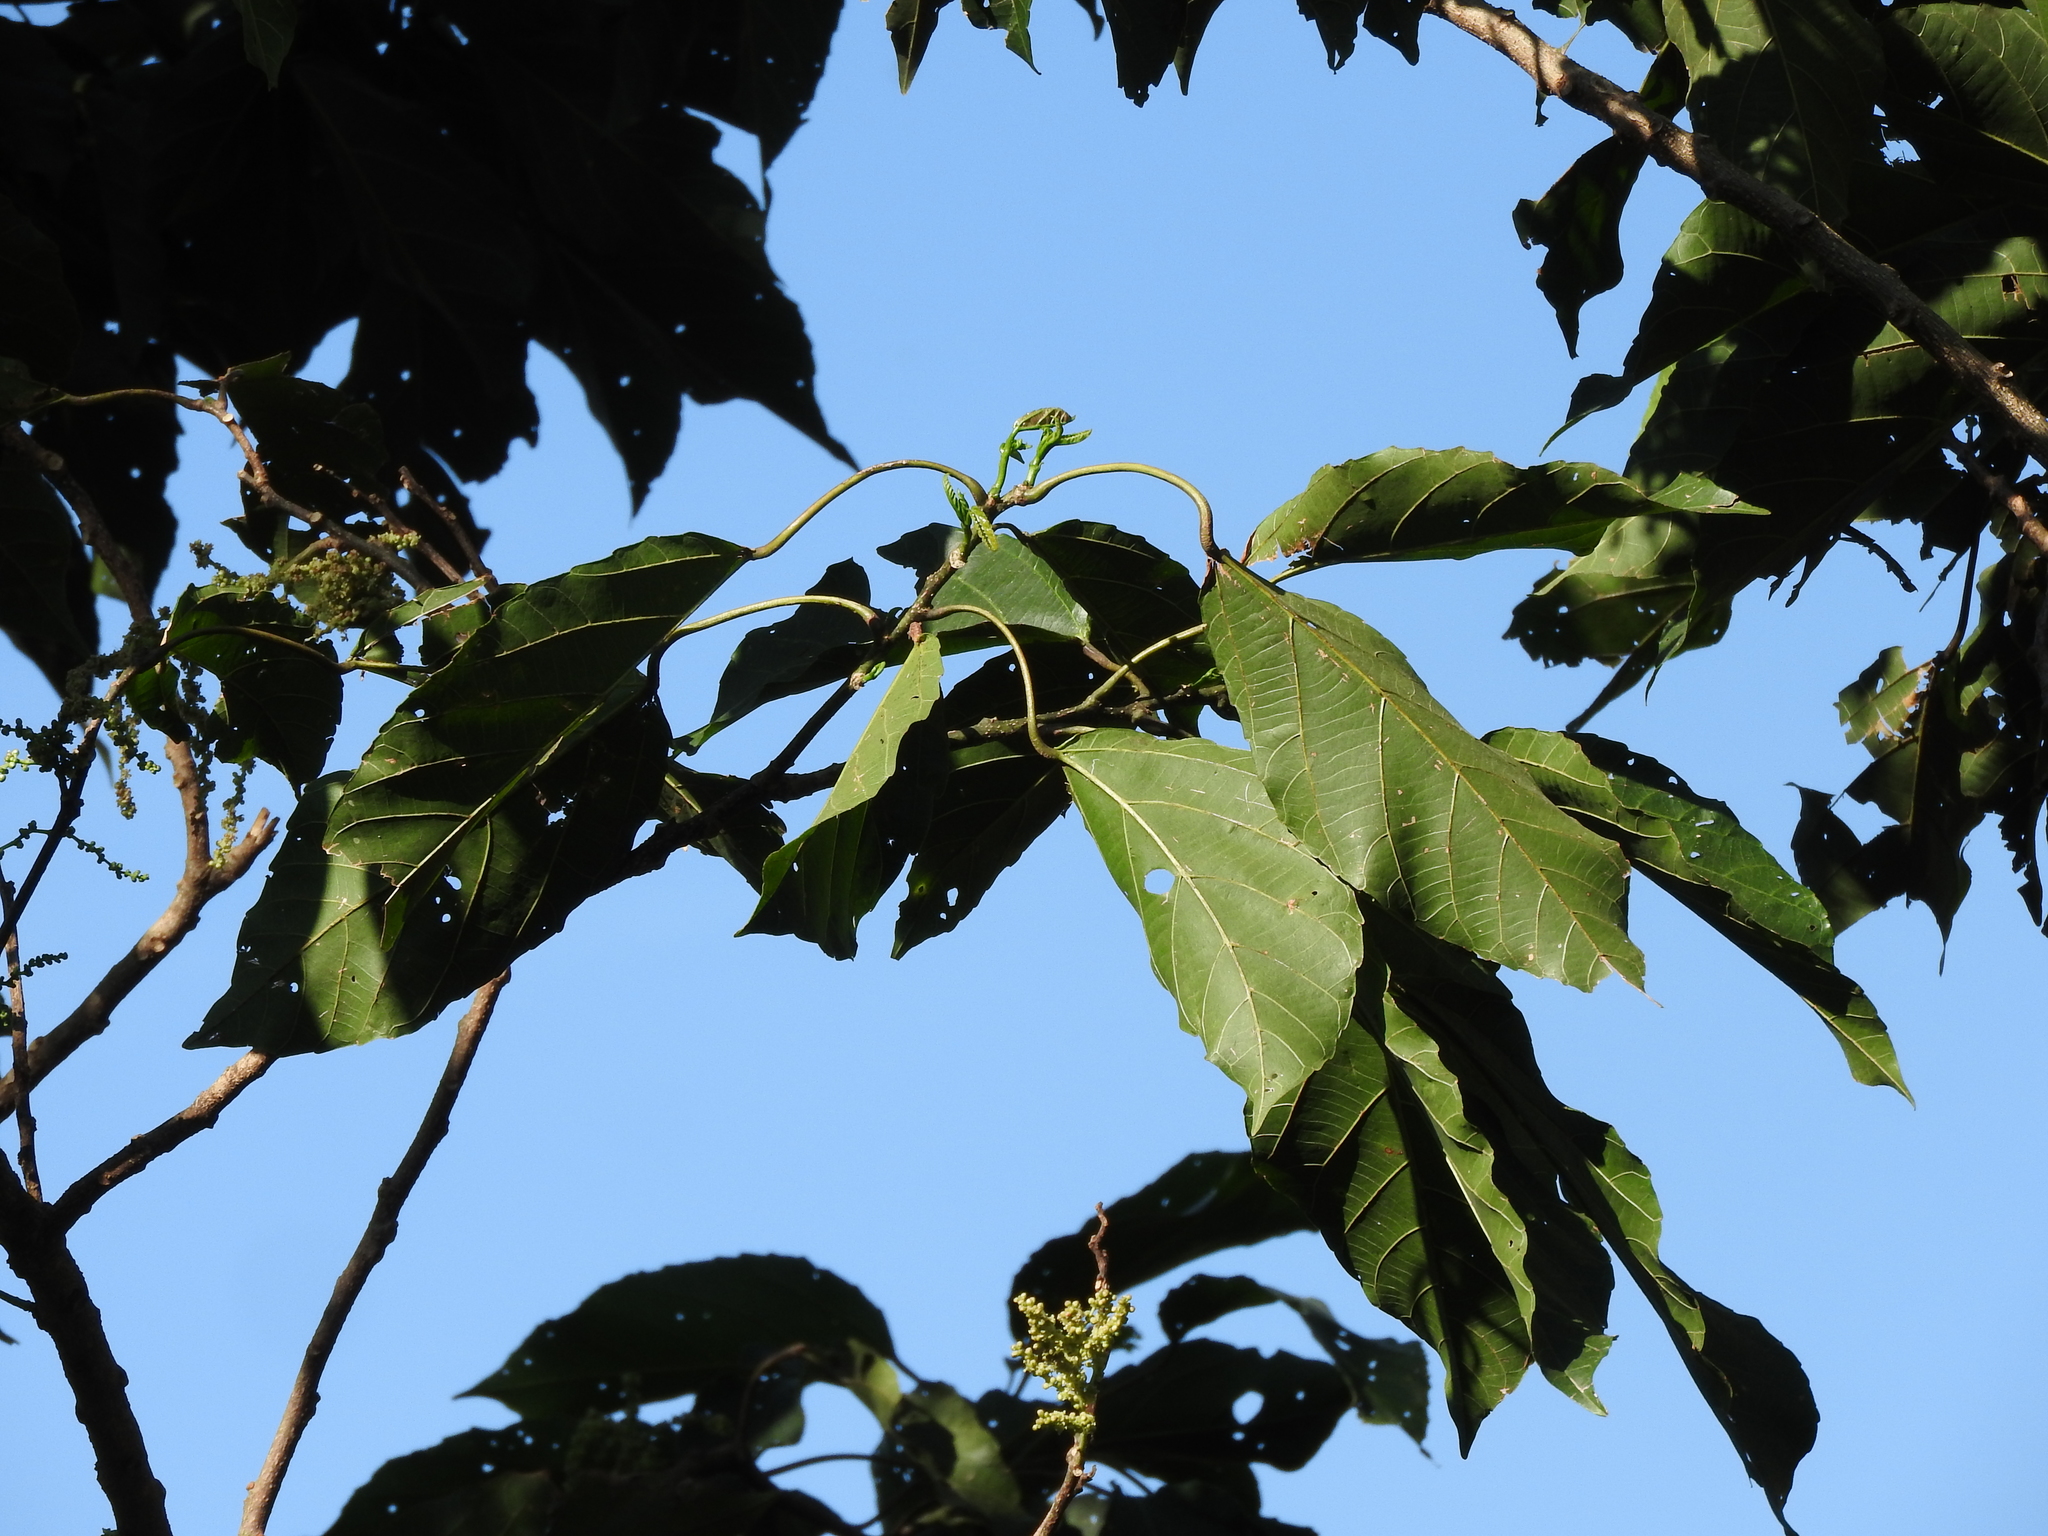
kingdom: Plantae
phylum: Tracheophyta
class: Magnoliopsida
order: Malpighiales
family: Euphorbiaceae
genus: Alchornea
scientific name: Alchornea latifolia
